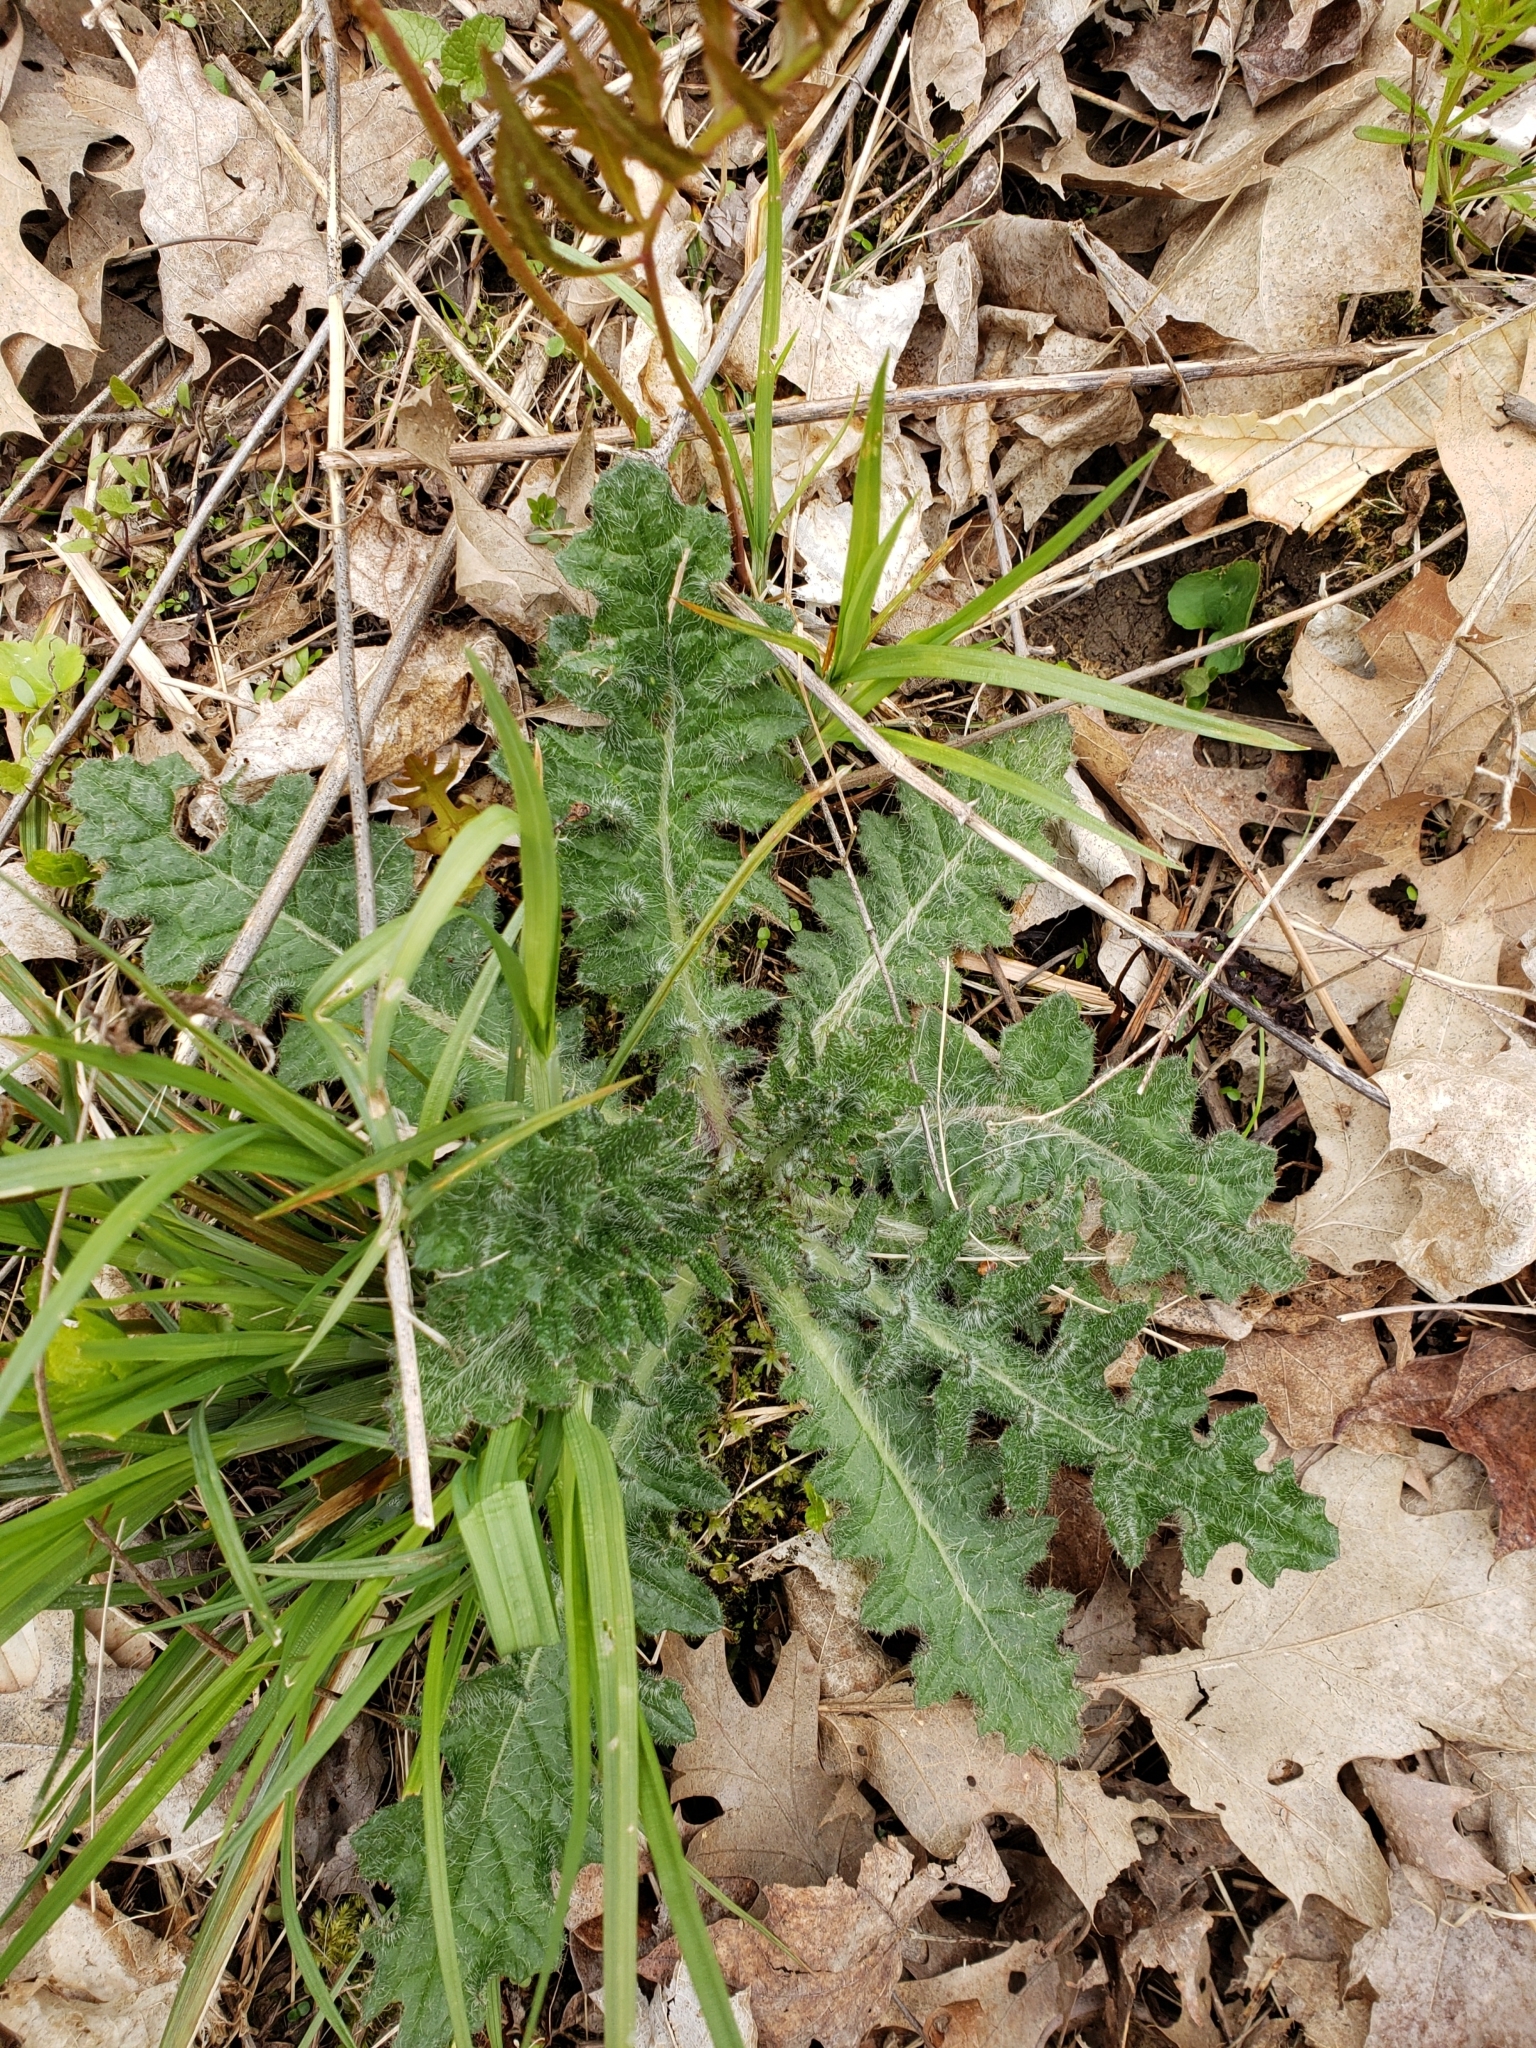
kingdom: Plantae
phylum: Tracheophyta
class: Magnoliopsida
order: Asterales
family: Asteraceae
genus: Cirsium
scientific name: Cirsium vulgare
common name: Bull thistle
